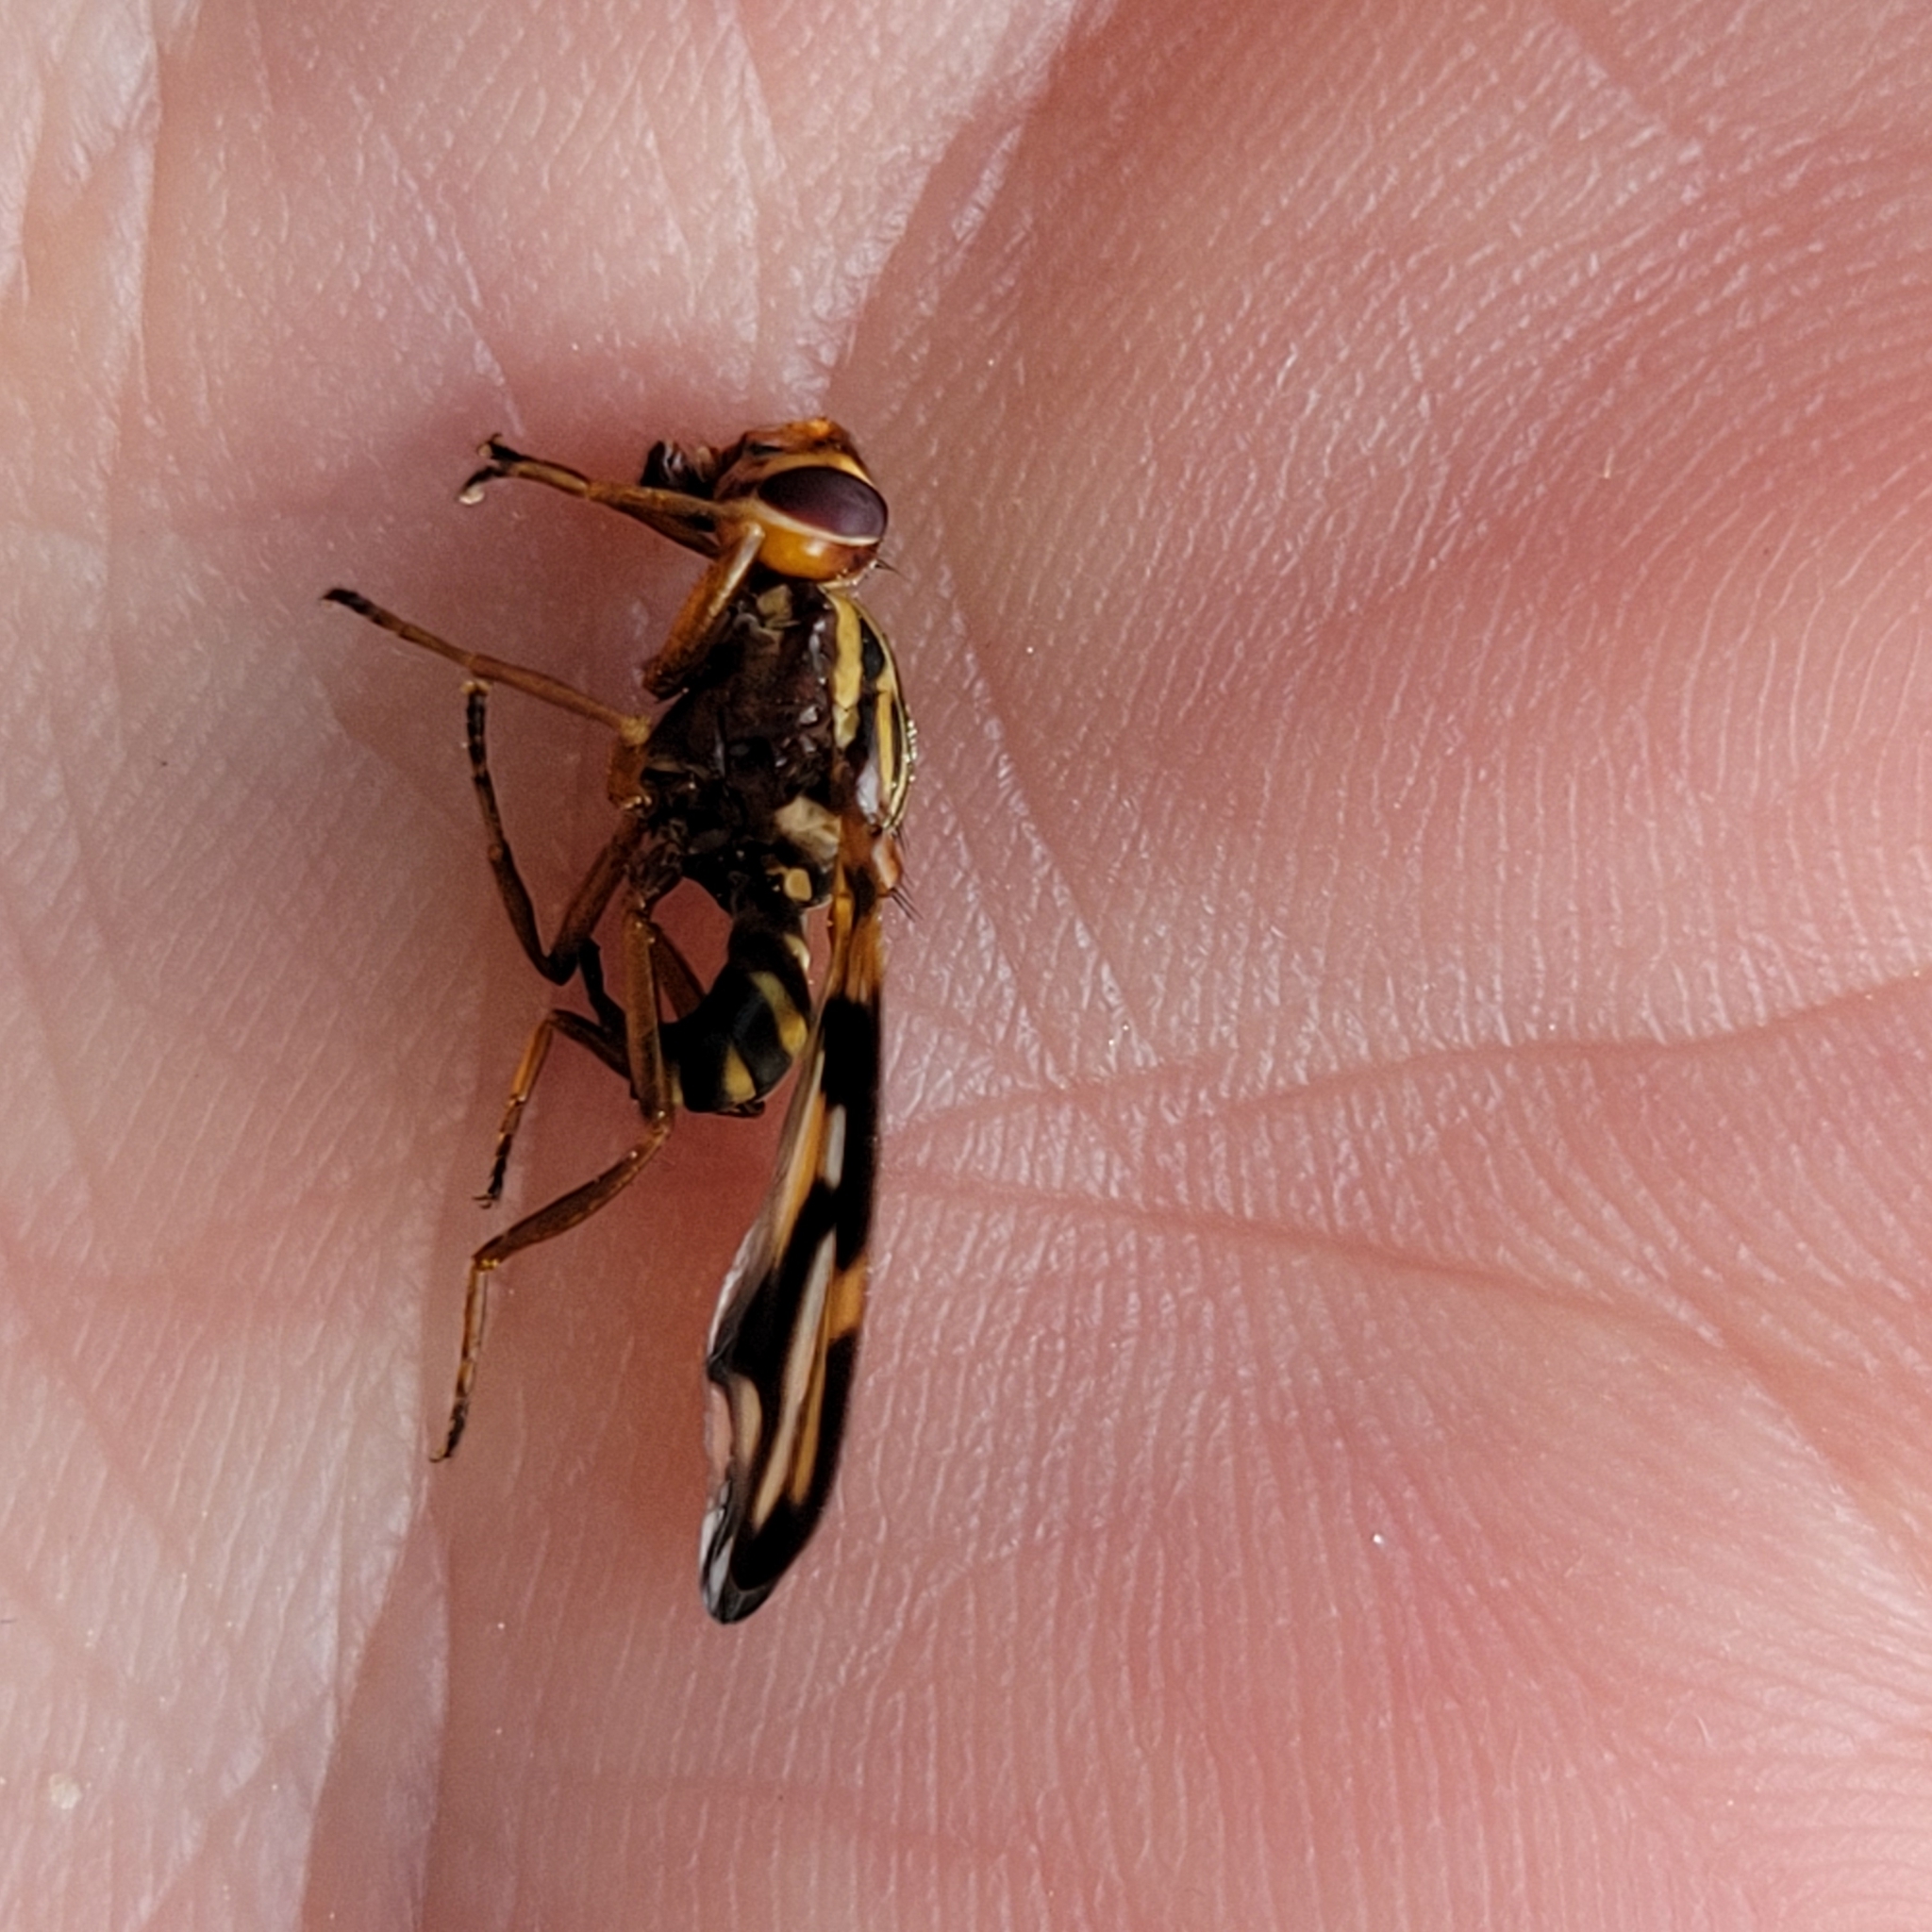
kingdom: Animalia
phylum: Arthropoda
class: Insecta
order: Diptera
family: Ulidiidae
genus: Idana
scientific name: Idana marginata
